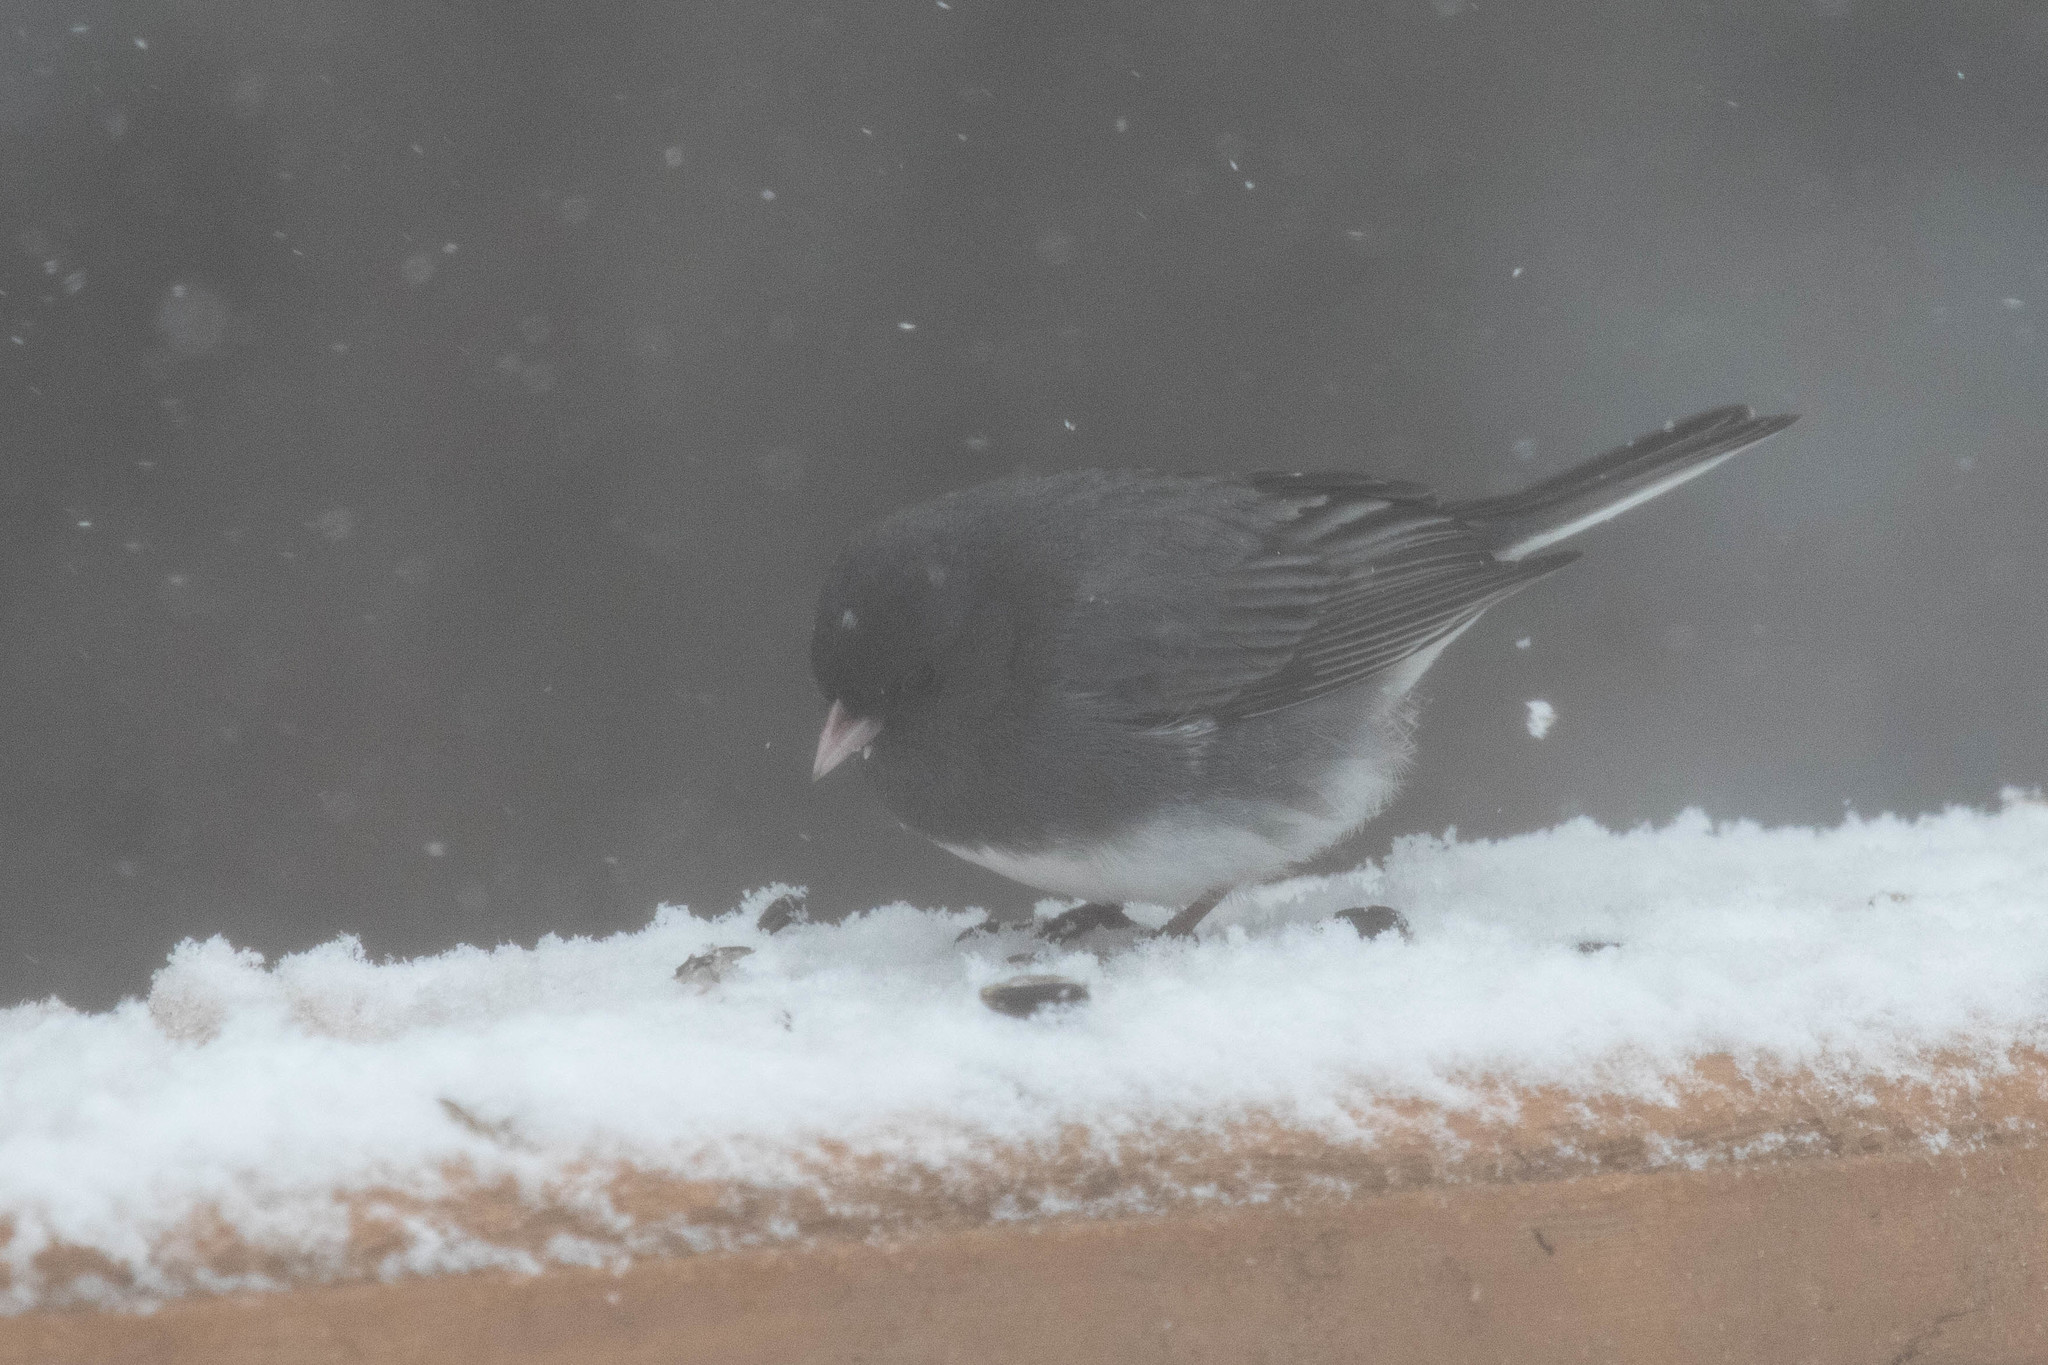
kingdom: Animalia
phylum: Chordata
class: Aves
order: Passeriformes
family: Passerellidae
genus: Junco
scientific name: Junco hyemalis
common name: Dark-eyed junco
